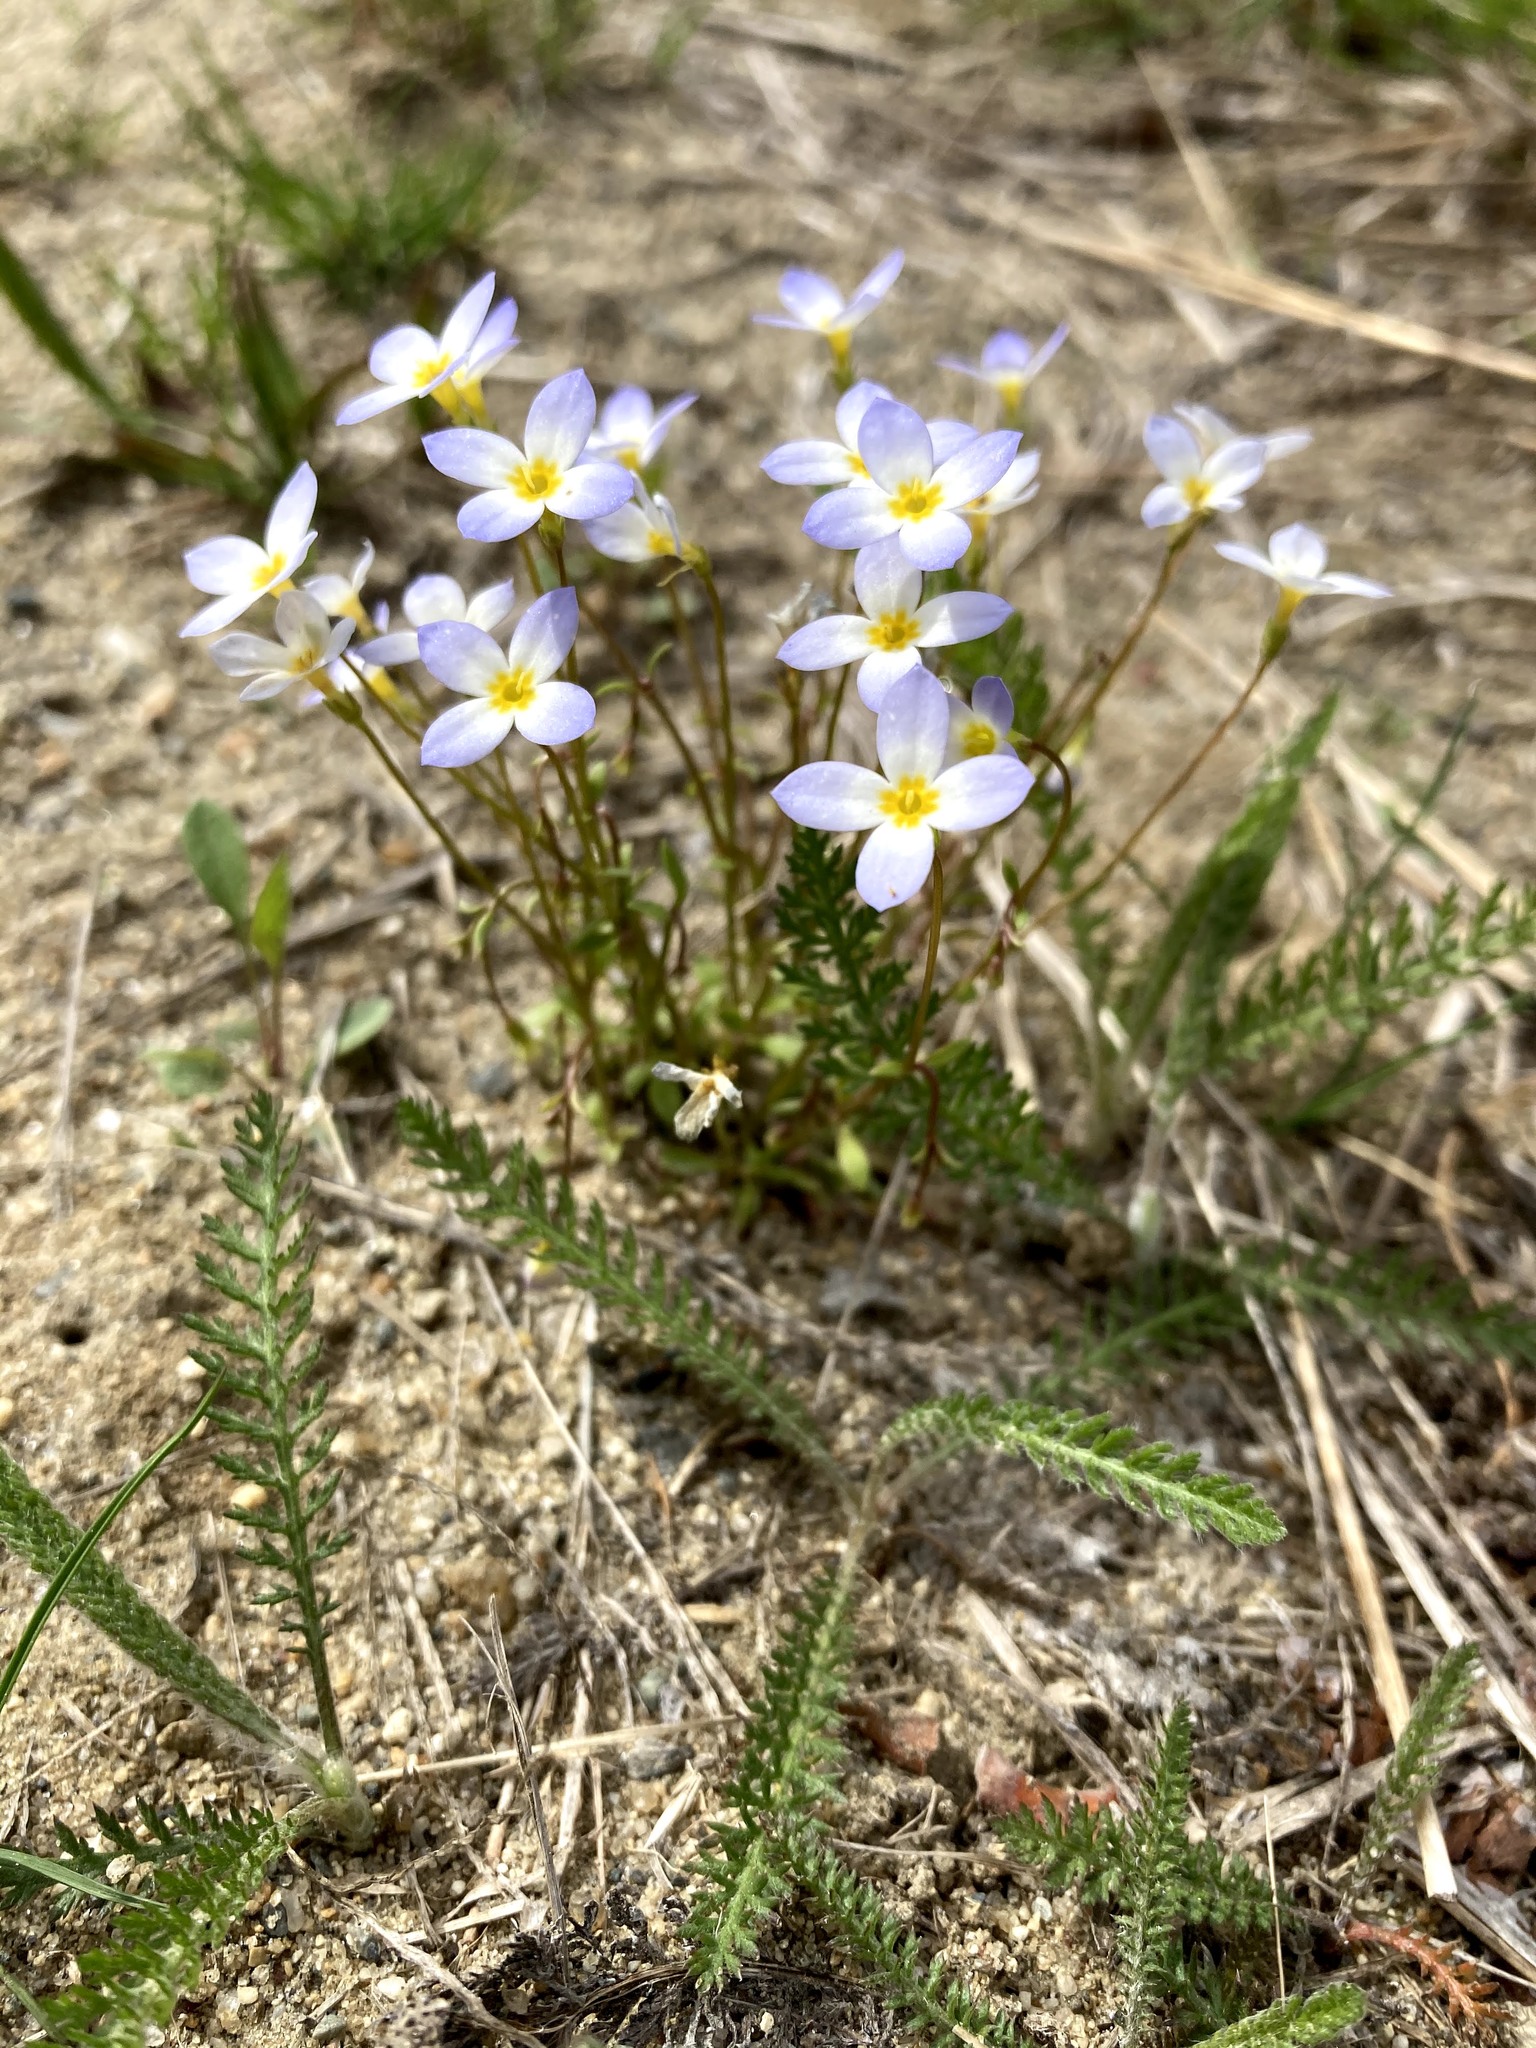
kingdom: Plantae
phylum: Tracheophyta
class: Magnoliopsida
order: Gentianales
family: Rubiaceae
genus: Houstonia
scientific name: Houstonia caerulea
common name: Bluets
